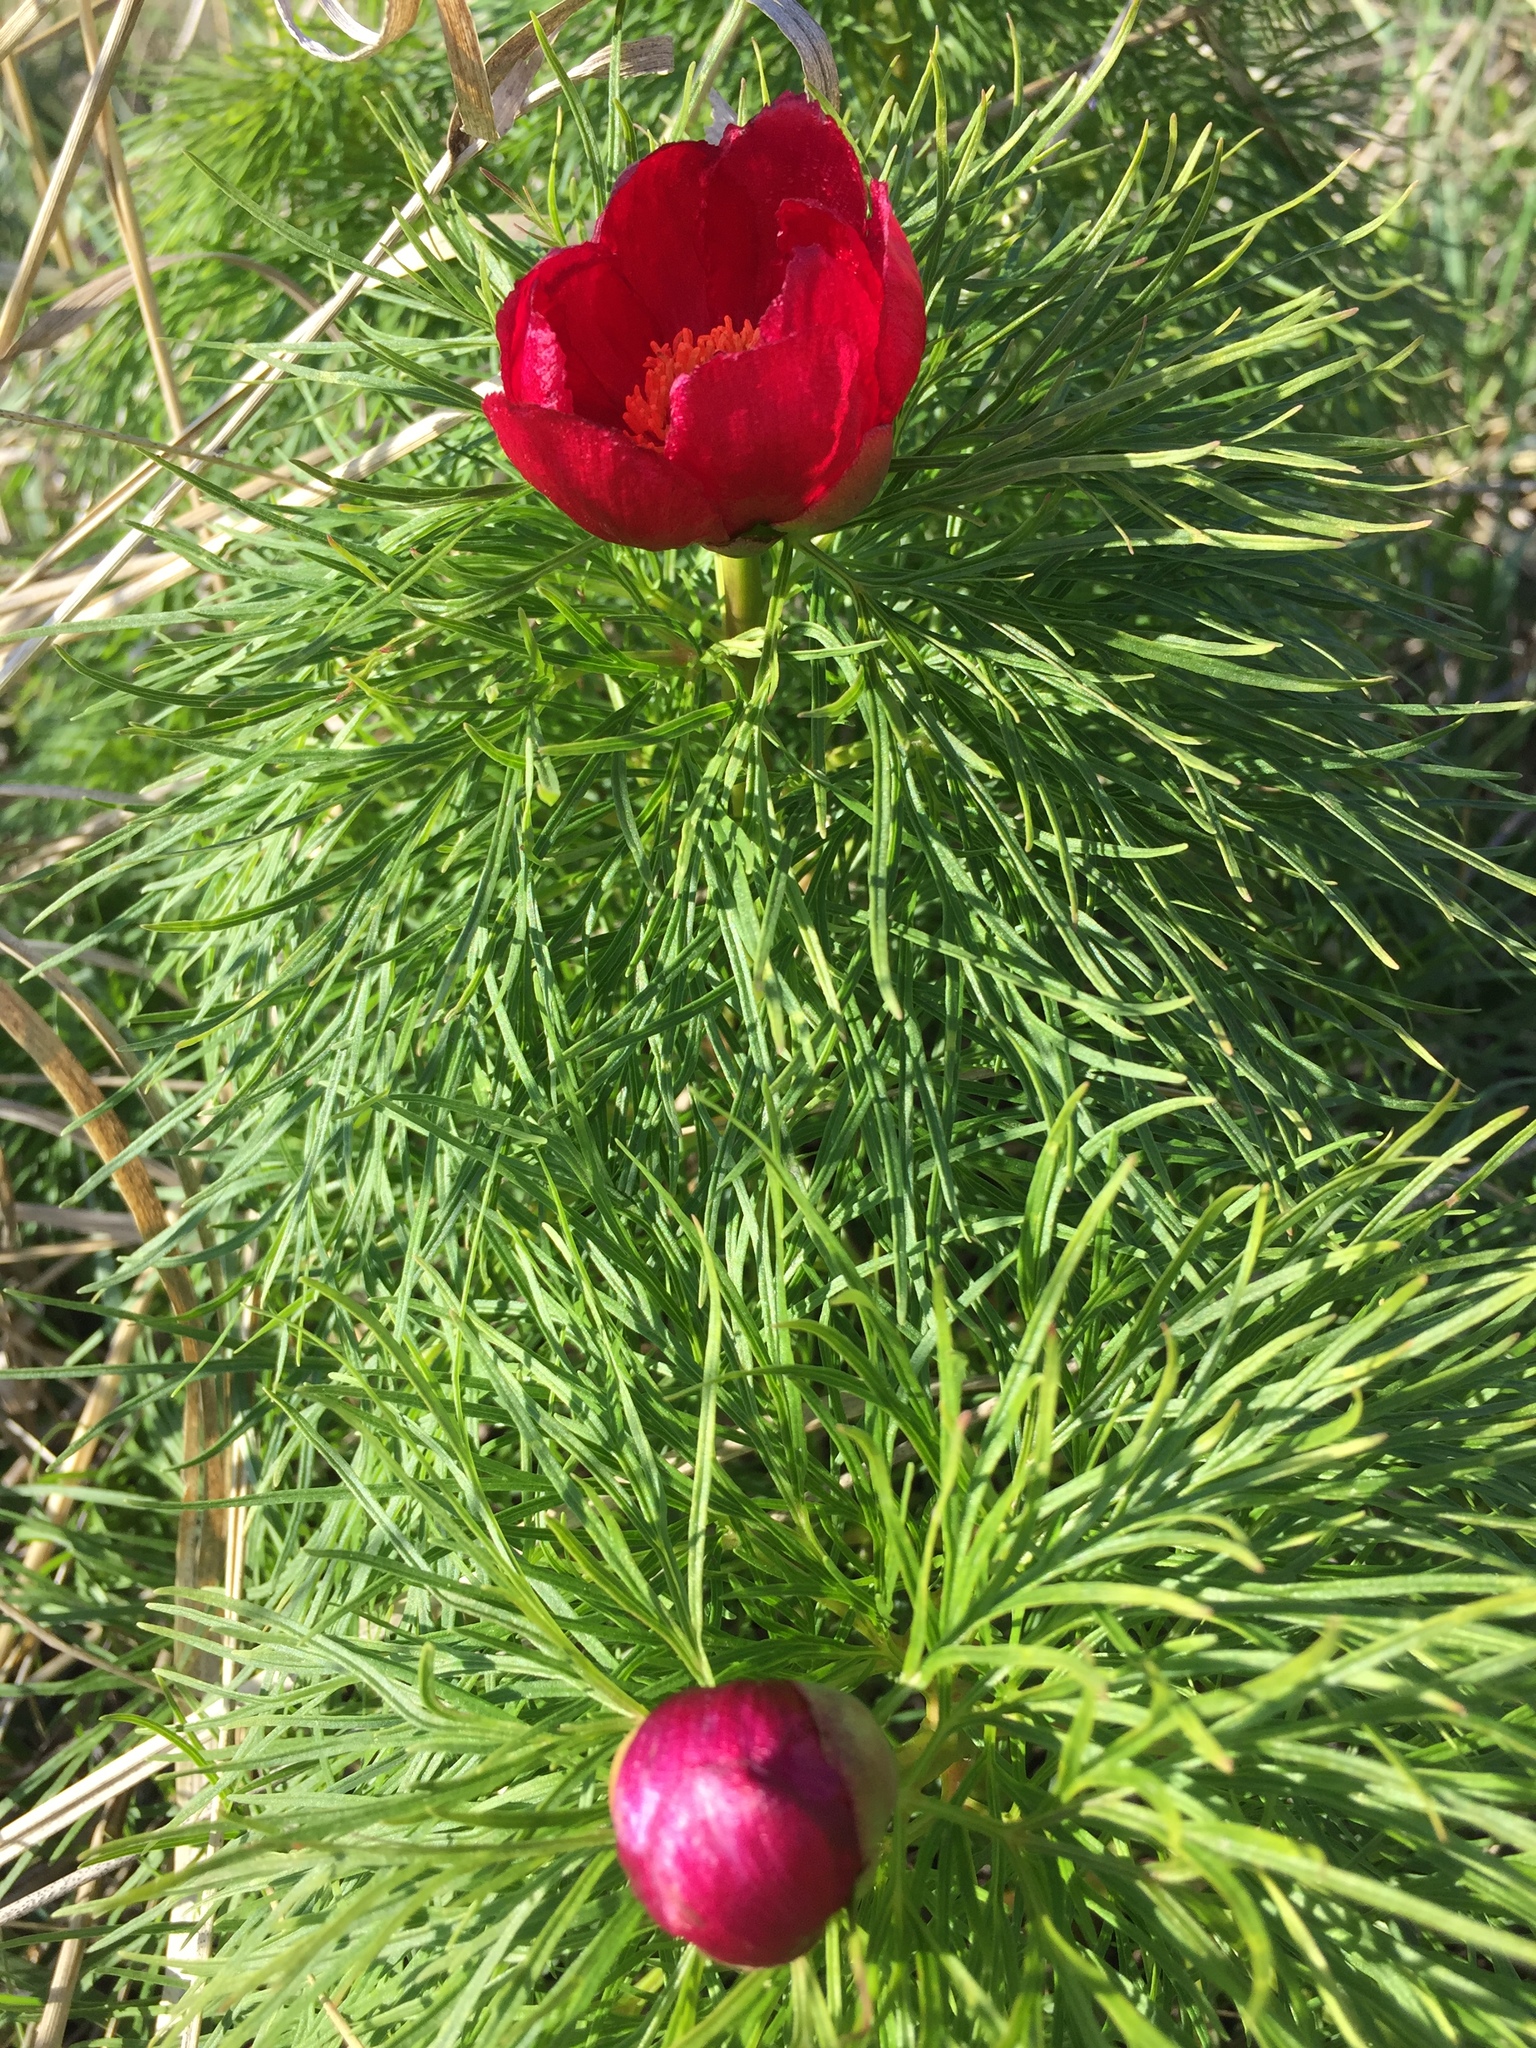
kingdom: Plantae
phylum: Tracheophyta
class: Magnoliopsida
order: Saxifragales
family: Paeoniaceae
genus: Paeonia
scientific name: Paeonia tenuifolia
